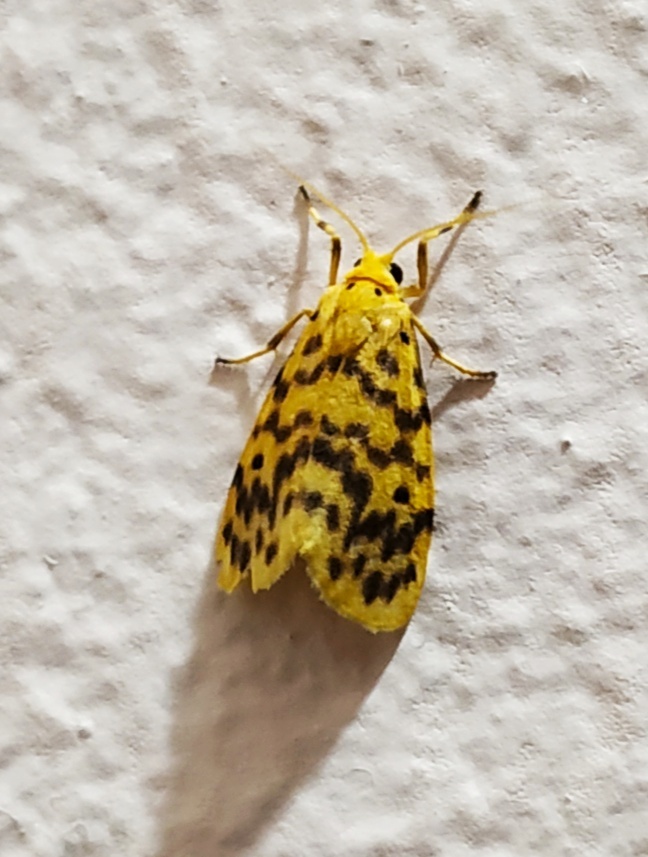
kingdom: Animalia
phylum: Arthropoda
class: Insecta
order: Lepidoptera
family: Erebidae
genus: Miltochrista
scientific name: Miltochrista semifascia
